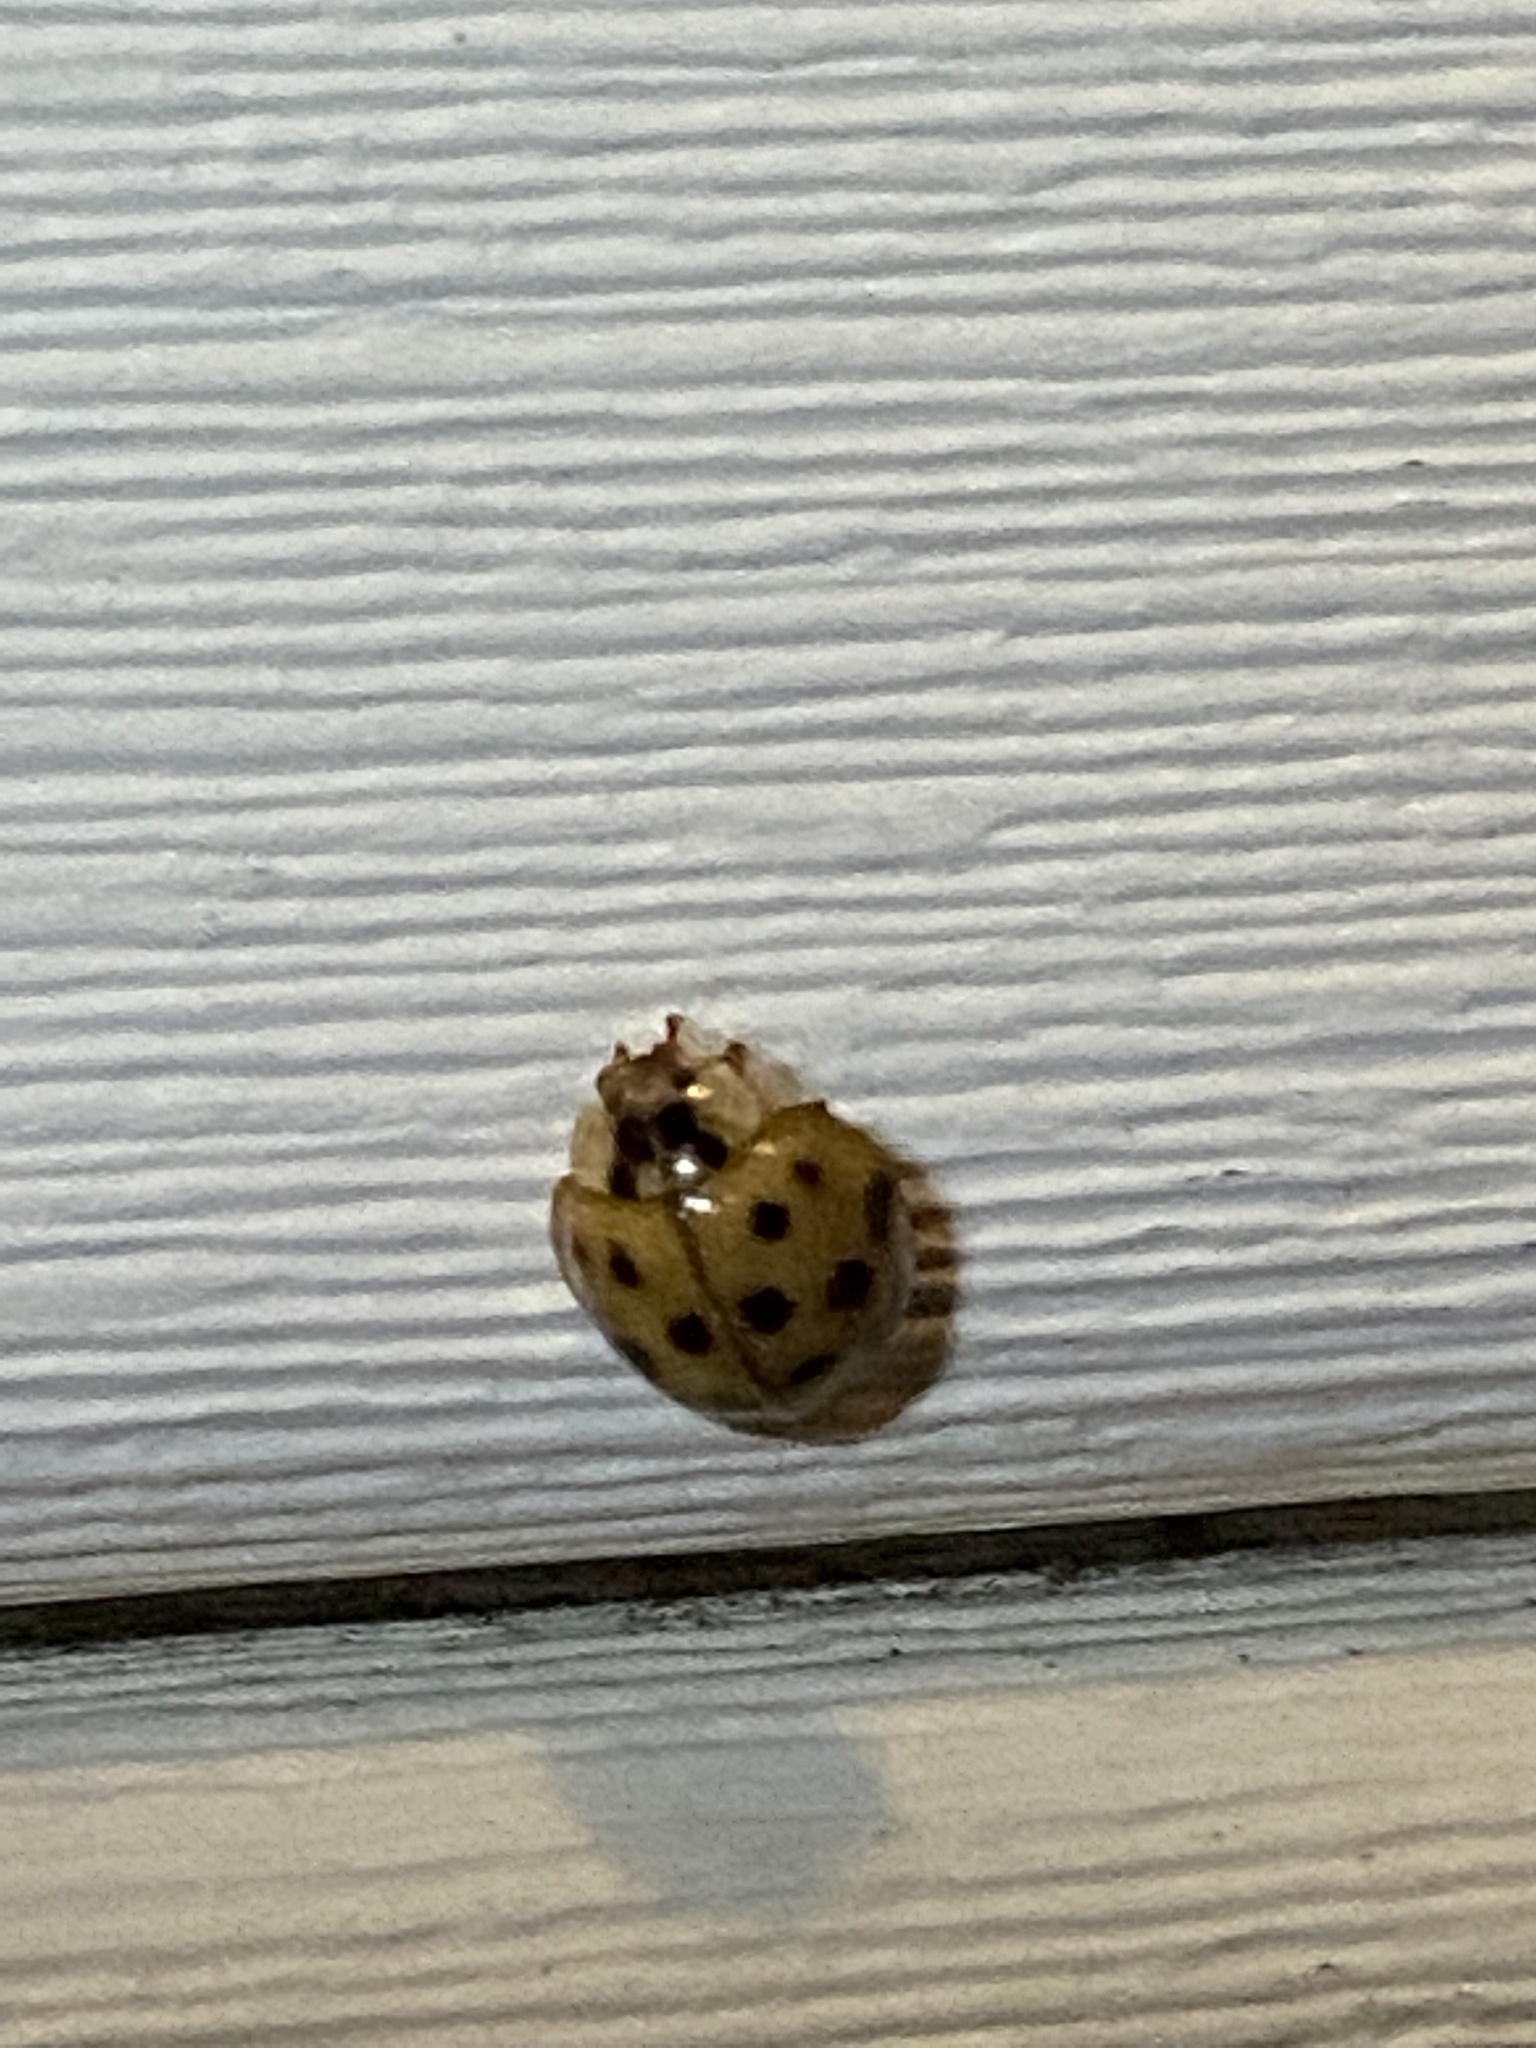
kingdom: Animalia
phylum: Arthropoda
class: Insecta
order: Coleoptera
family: Coccinellidae
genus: Harmonia
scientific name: Harmonia axyridis
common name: Harlequin ladybird
